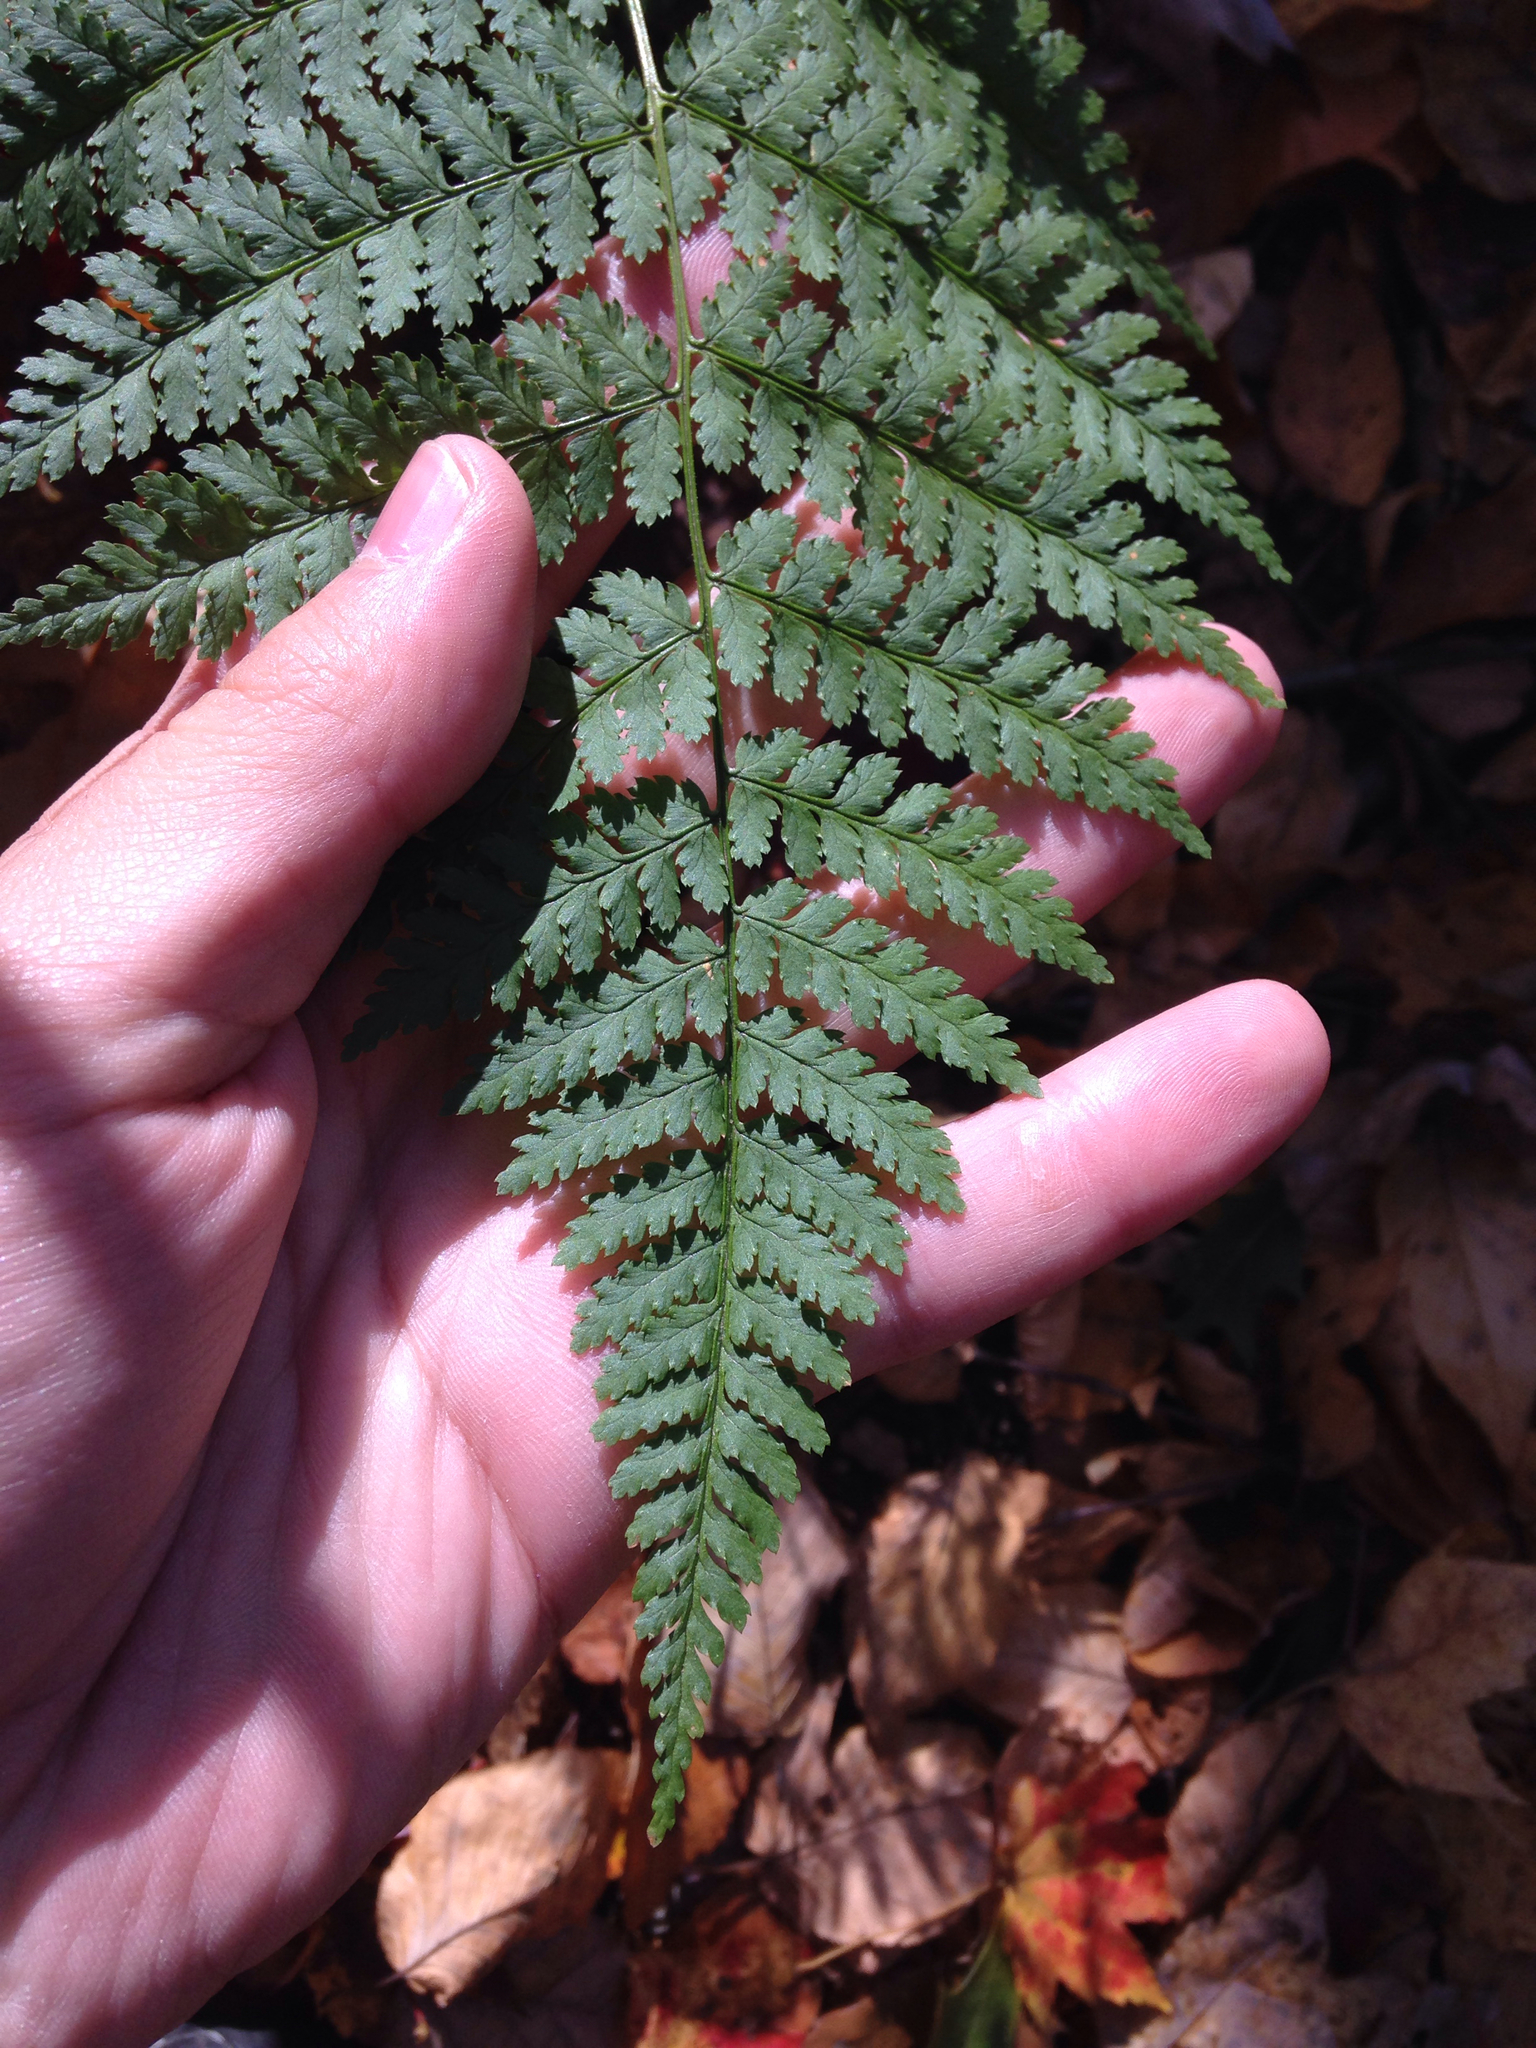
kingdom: Plantae
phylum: Tracheophyta
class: Polypodiopsida
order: Polypodiales
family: Dryopteridaceae
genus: Dryopteris
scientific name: Dryopteris intermedia
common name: Evergreen wood fern
